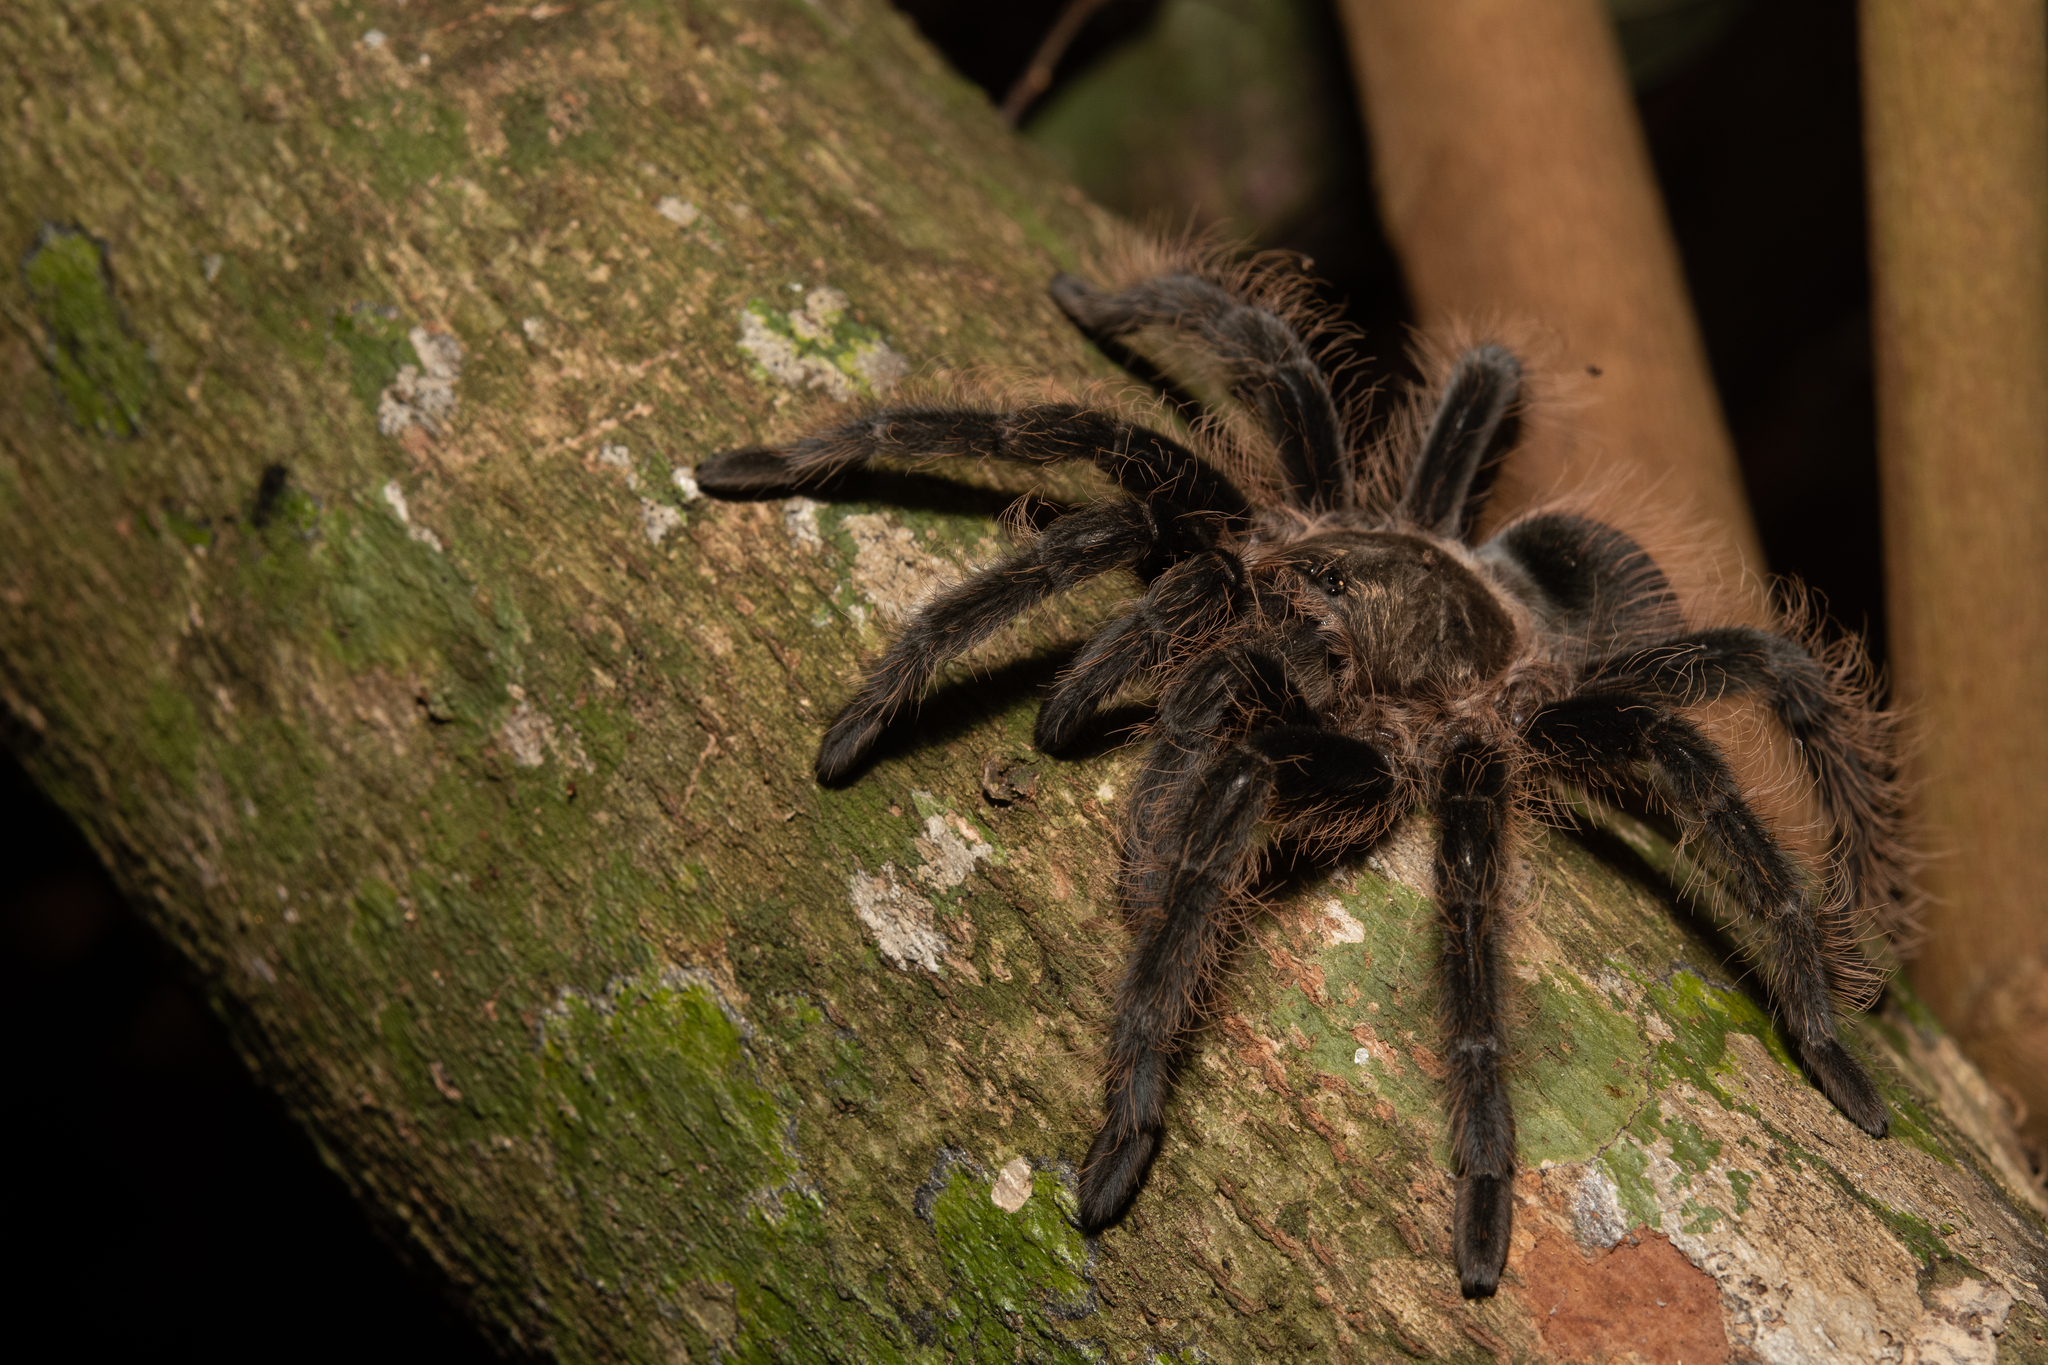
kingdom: Animalia
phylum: Arthropoda
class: Arachnida
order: Araneae
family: Theraphosidae
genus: Tliltocatl
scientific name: Tliltocatl albopilosus
